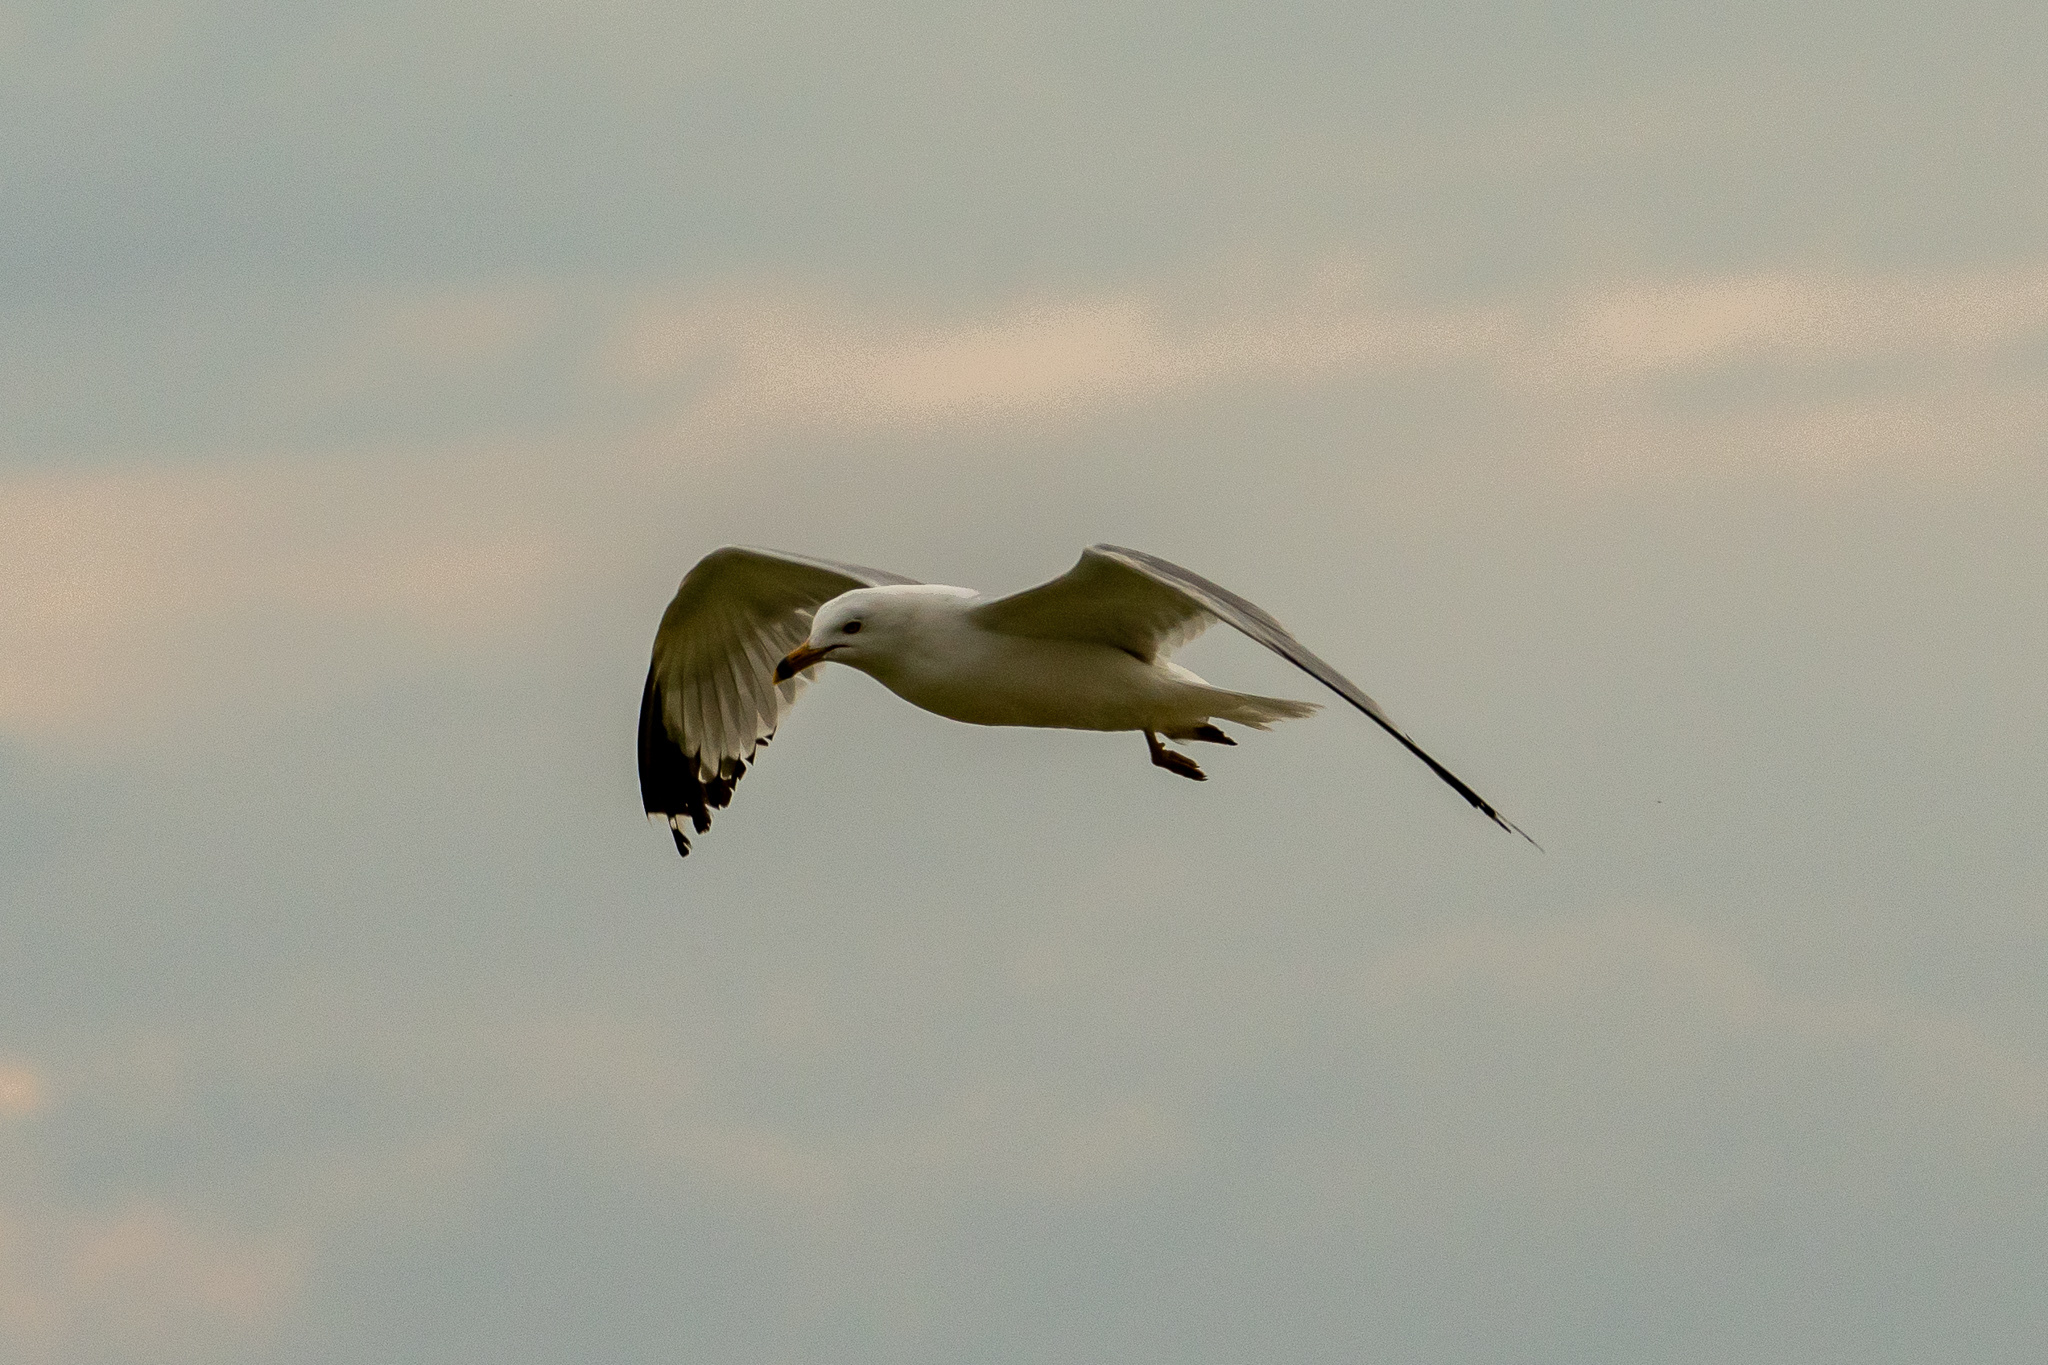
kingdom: Animalia
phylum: Chordata
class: Aves
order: Charadriiformes
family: Laridae
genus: Larus
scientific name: Larus delawarensis
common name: Ring-billed gull
